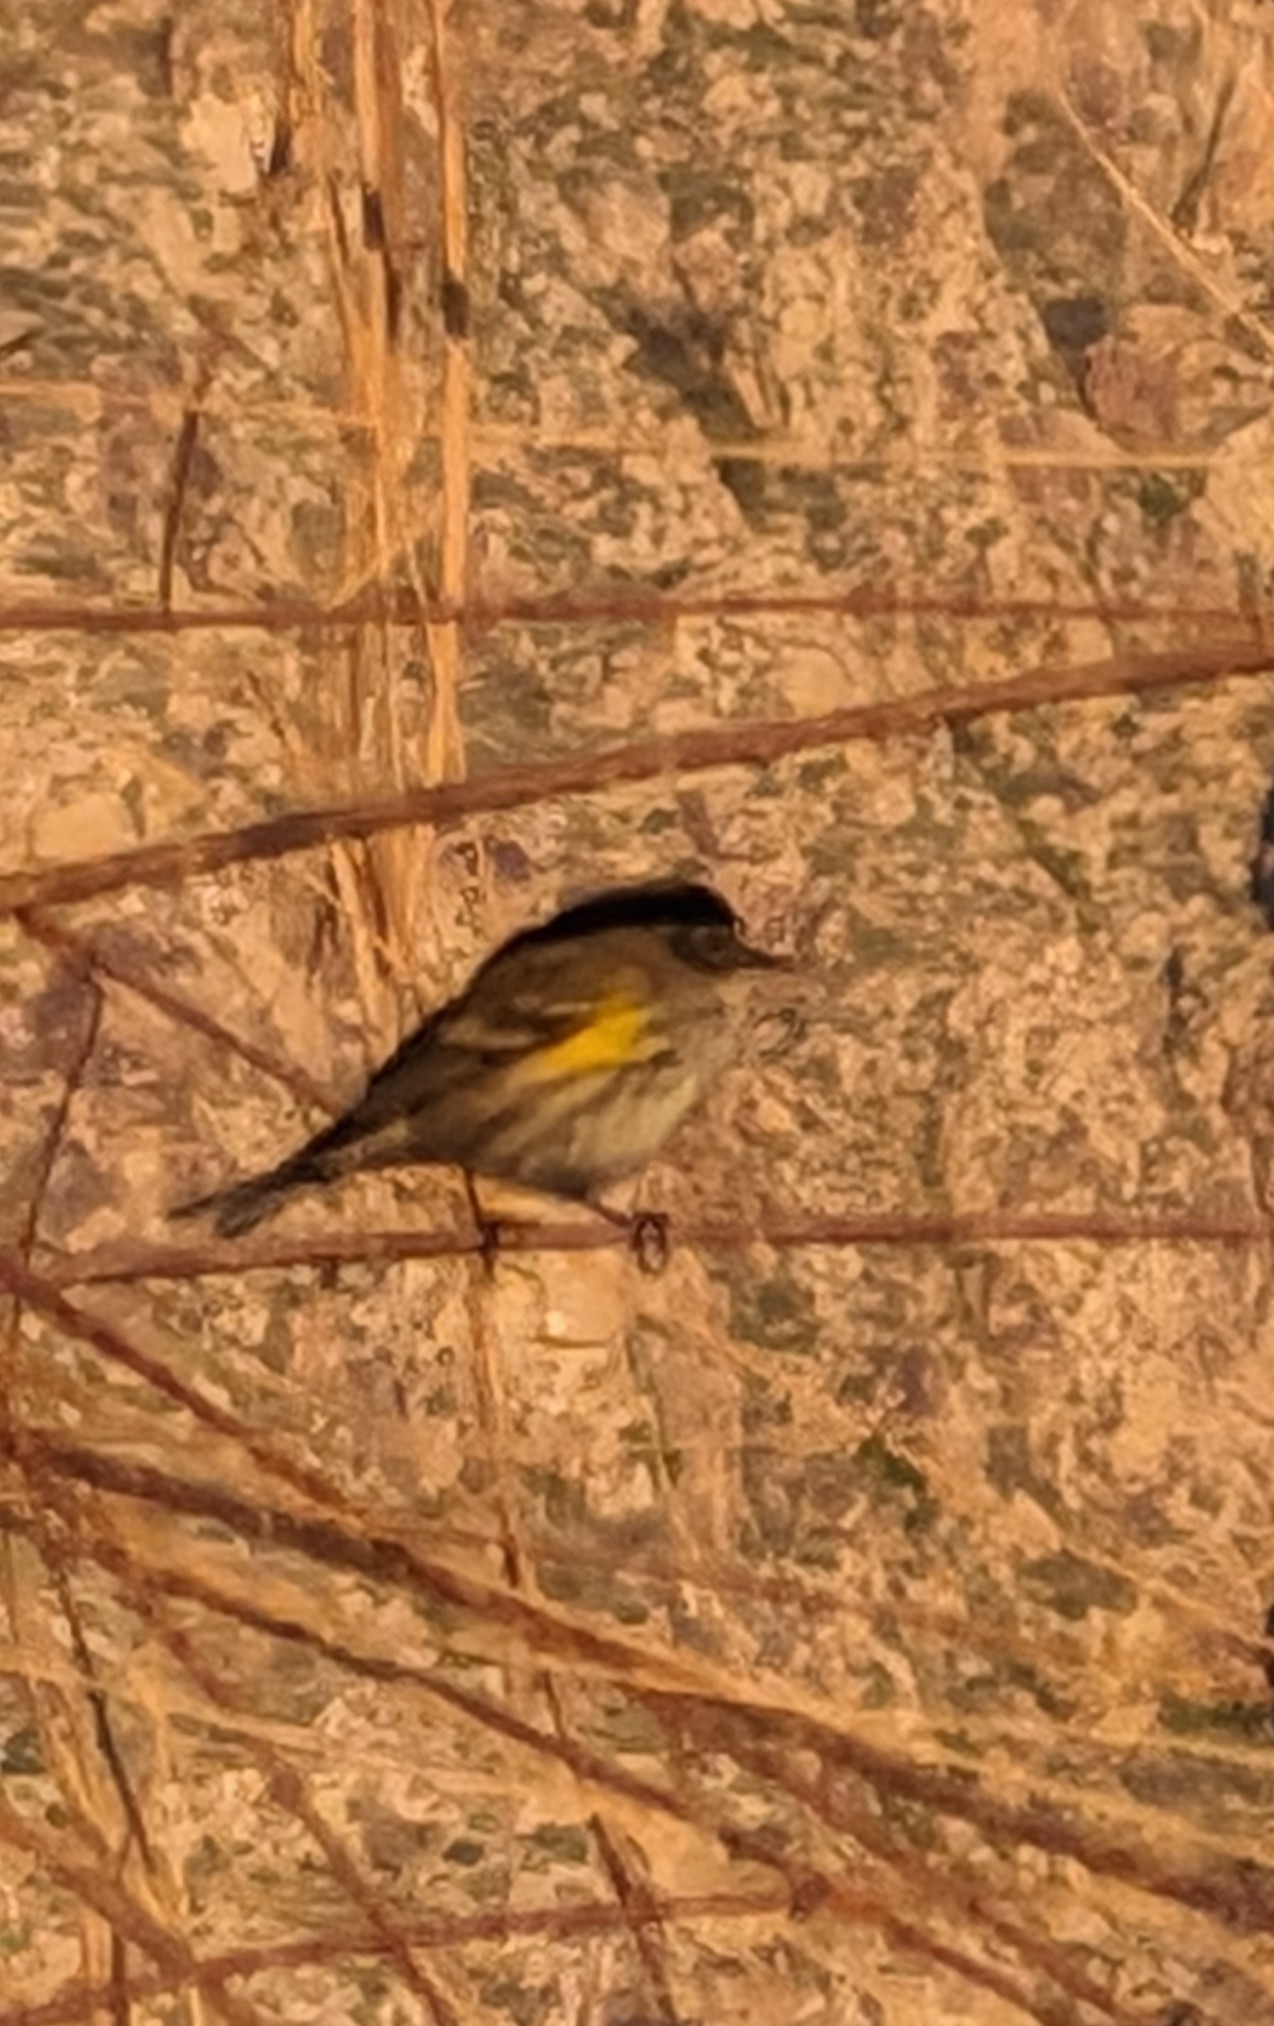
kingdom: Animalia
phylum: Chordata
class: Aves
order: Passeriformes
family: Parulidae
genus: Setophaga
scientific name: Setophaga coronata
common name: Myrtle warbler
